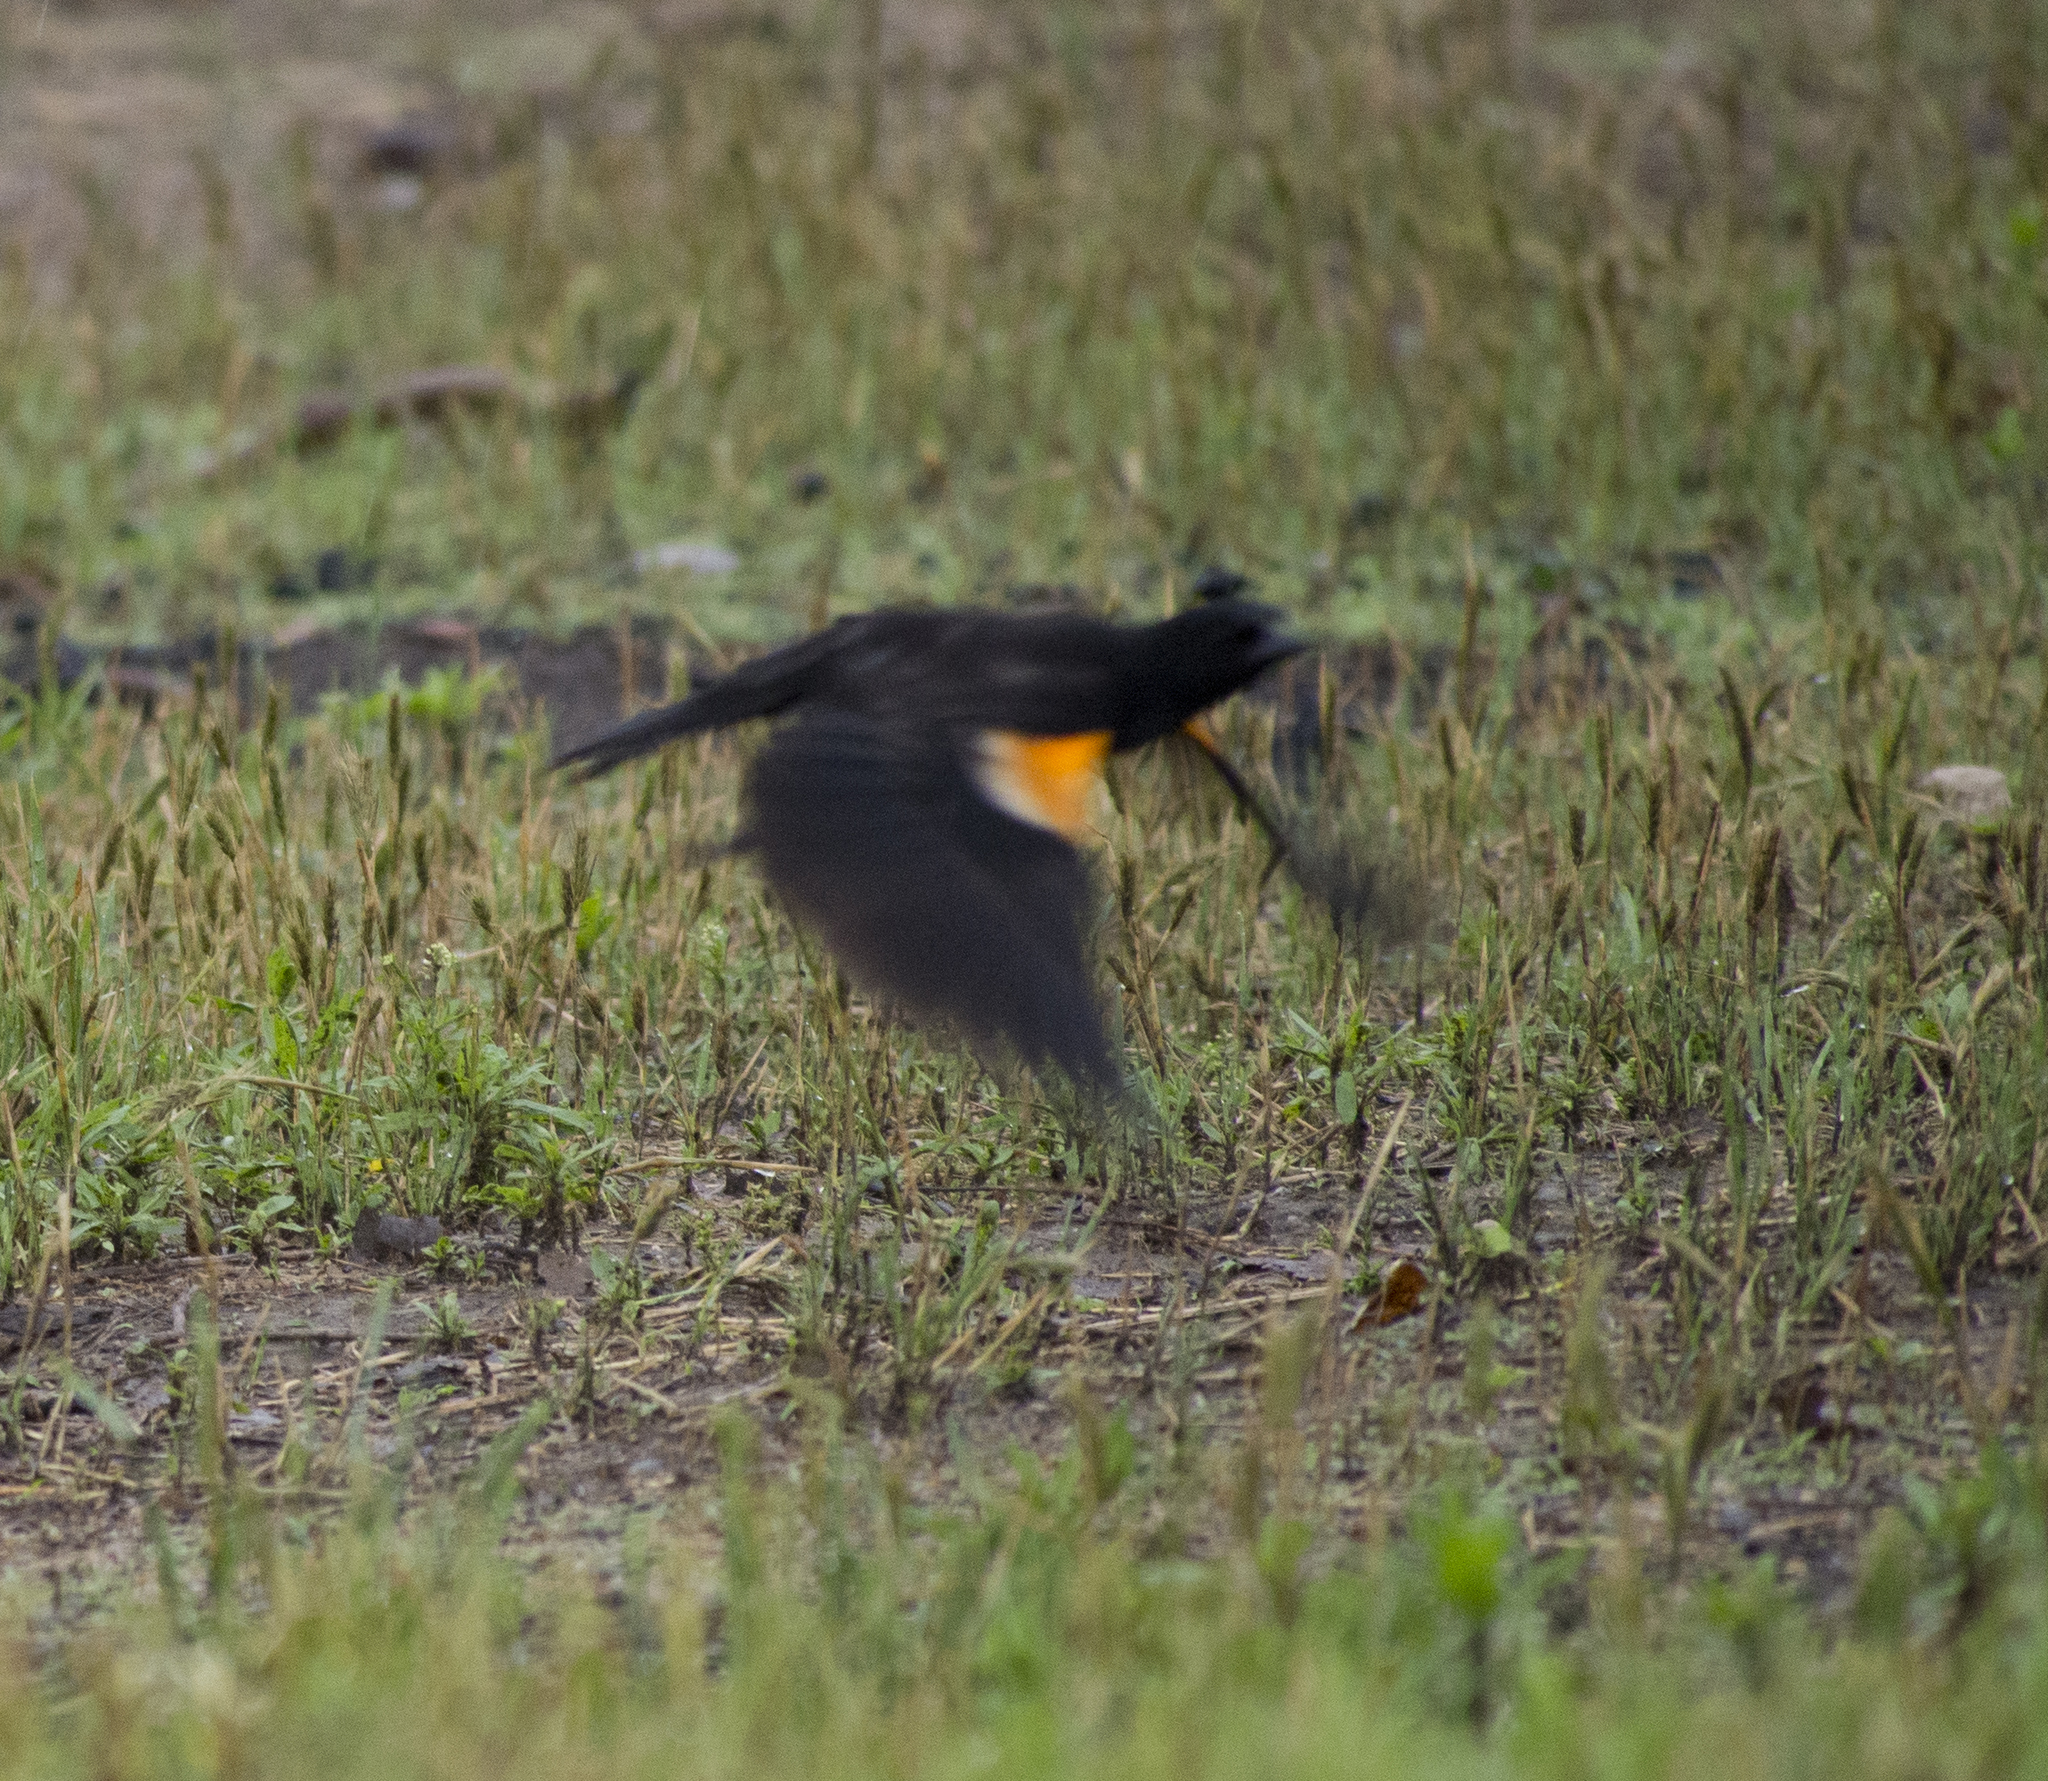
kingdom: Animalia
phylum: Chordata
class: Aves
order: Passeriformes
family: Icteridae
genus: Agelaius
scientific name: Agelaius phoeniceus
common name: Red-winged blackbird
